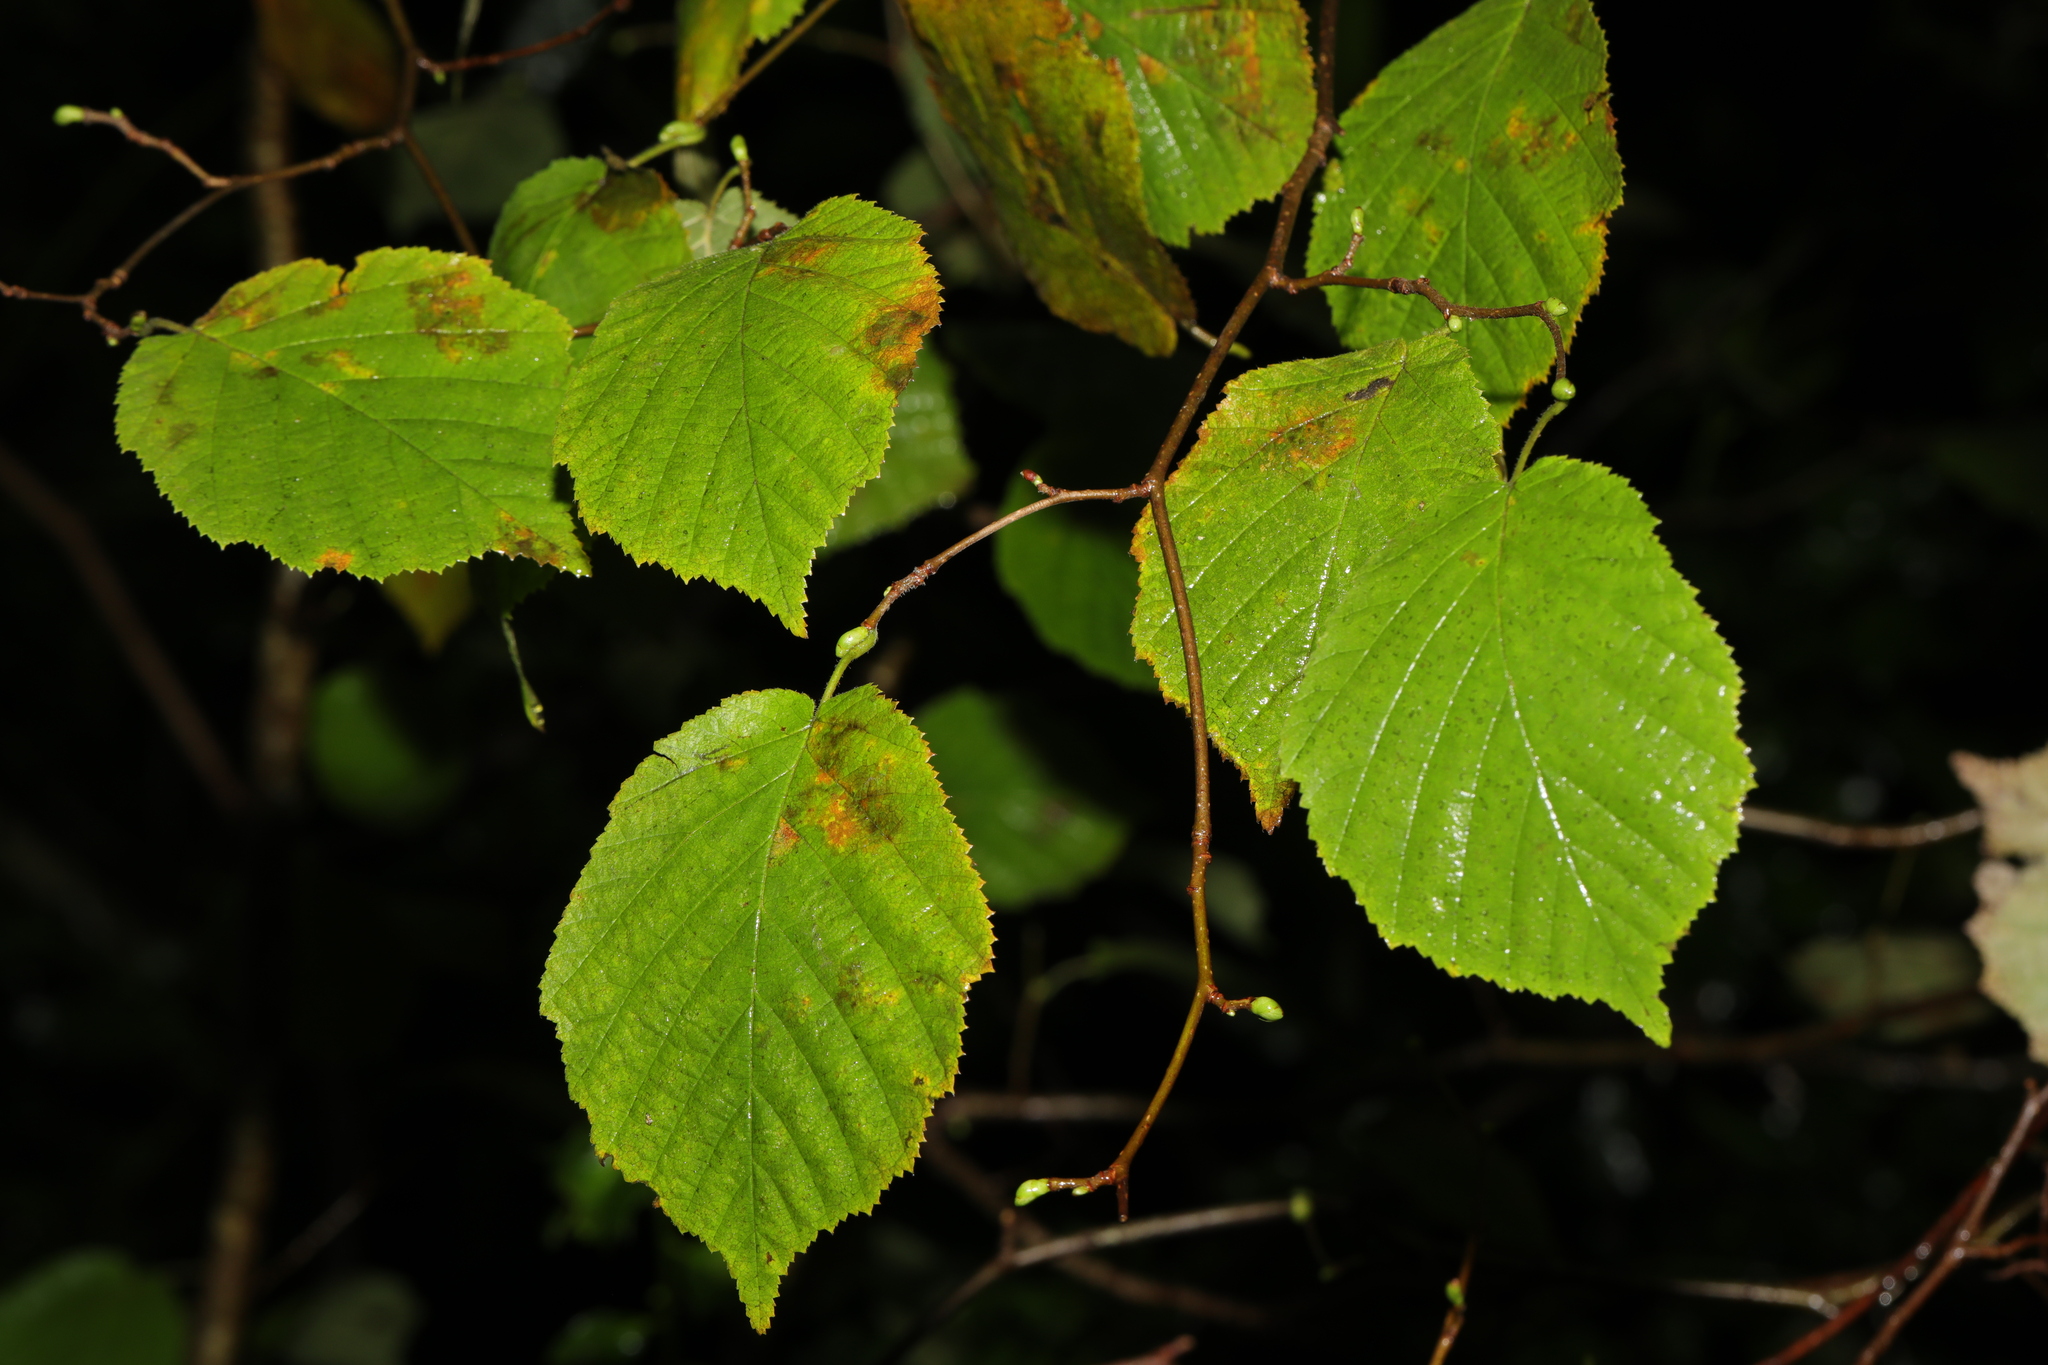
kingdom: Plantae
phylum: Tracheophyta
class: Magnoliopsida
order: Fagales
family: Betulaceae
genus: Corylus
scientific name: Corylus avellana
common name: European hazel
